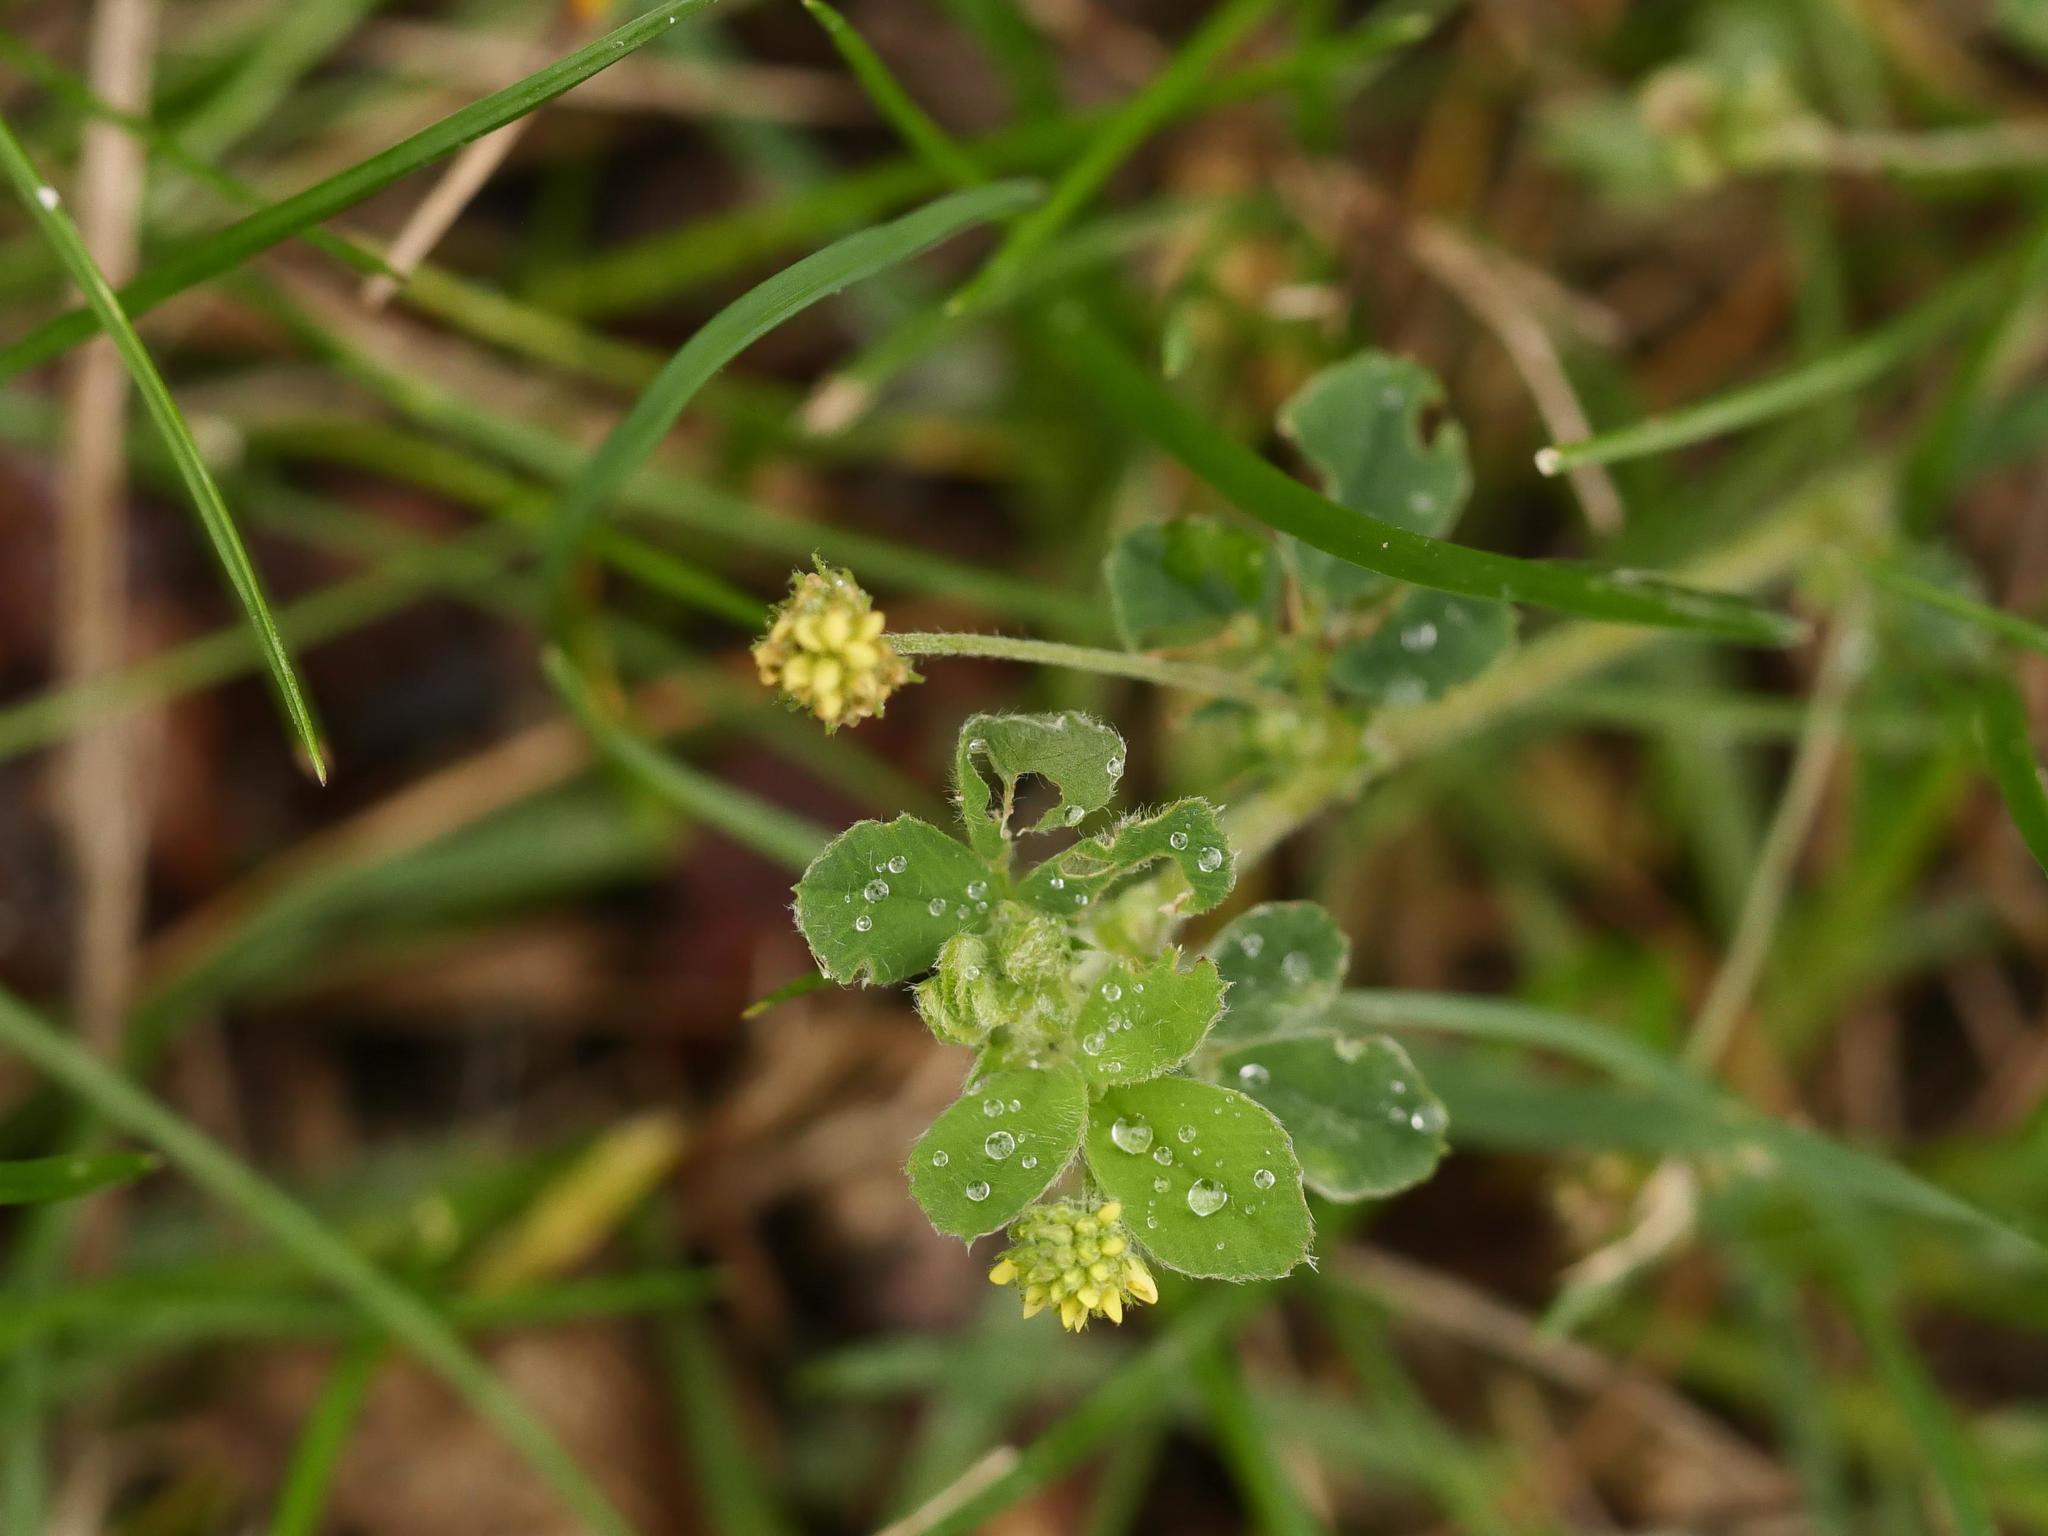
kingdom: Plantae
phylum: Tracheophyta
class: Magnoliopsida
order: Fabales
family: Fabaceae
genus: Medicago
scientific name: Medicago lupulina
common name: Black medick
